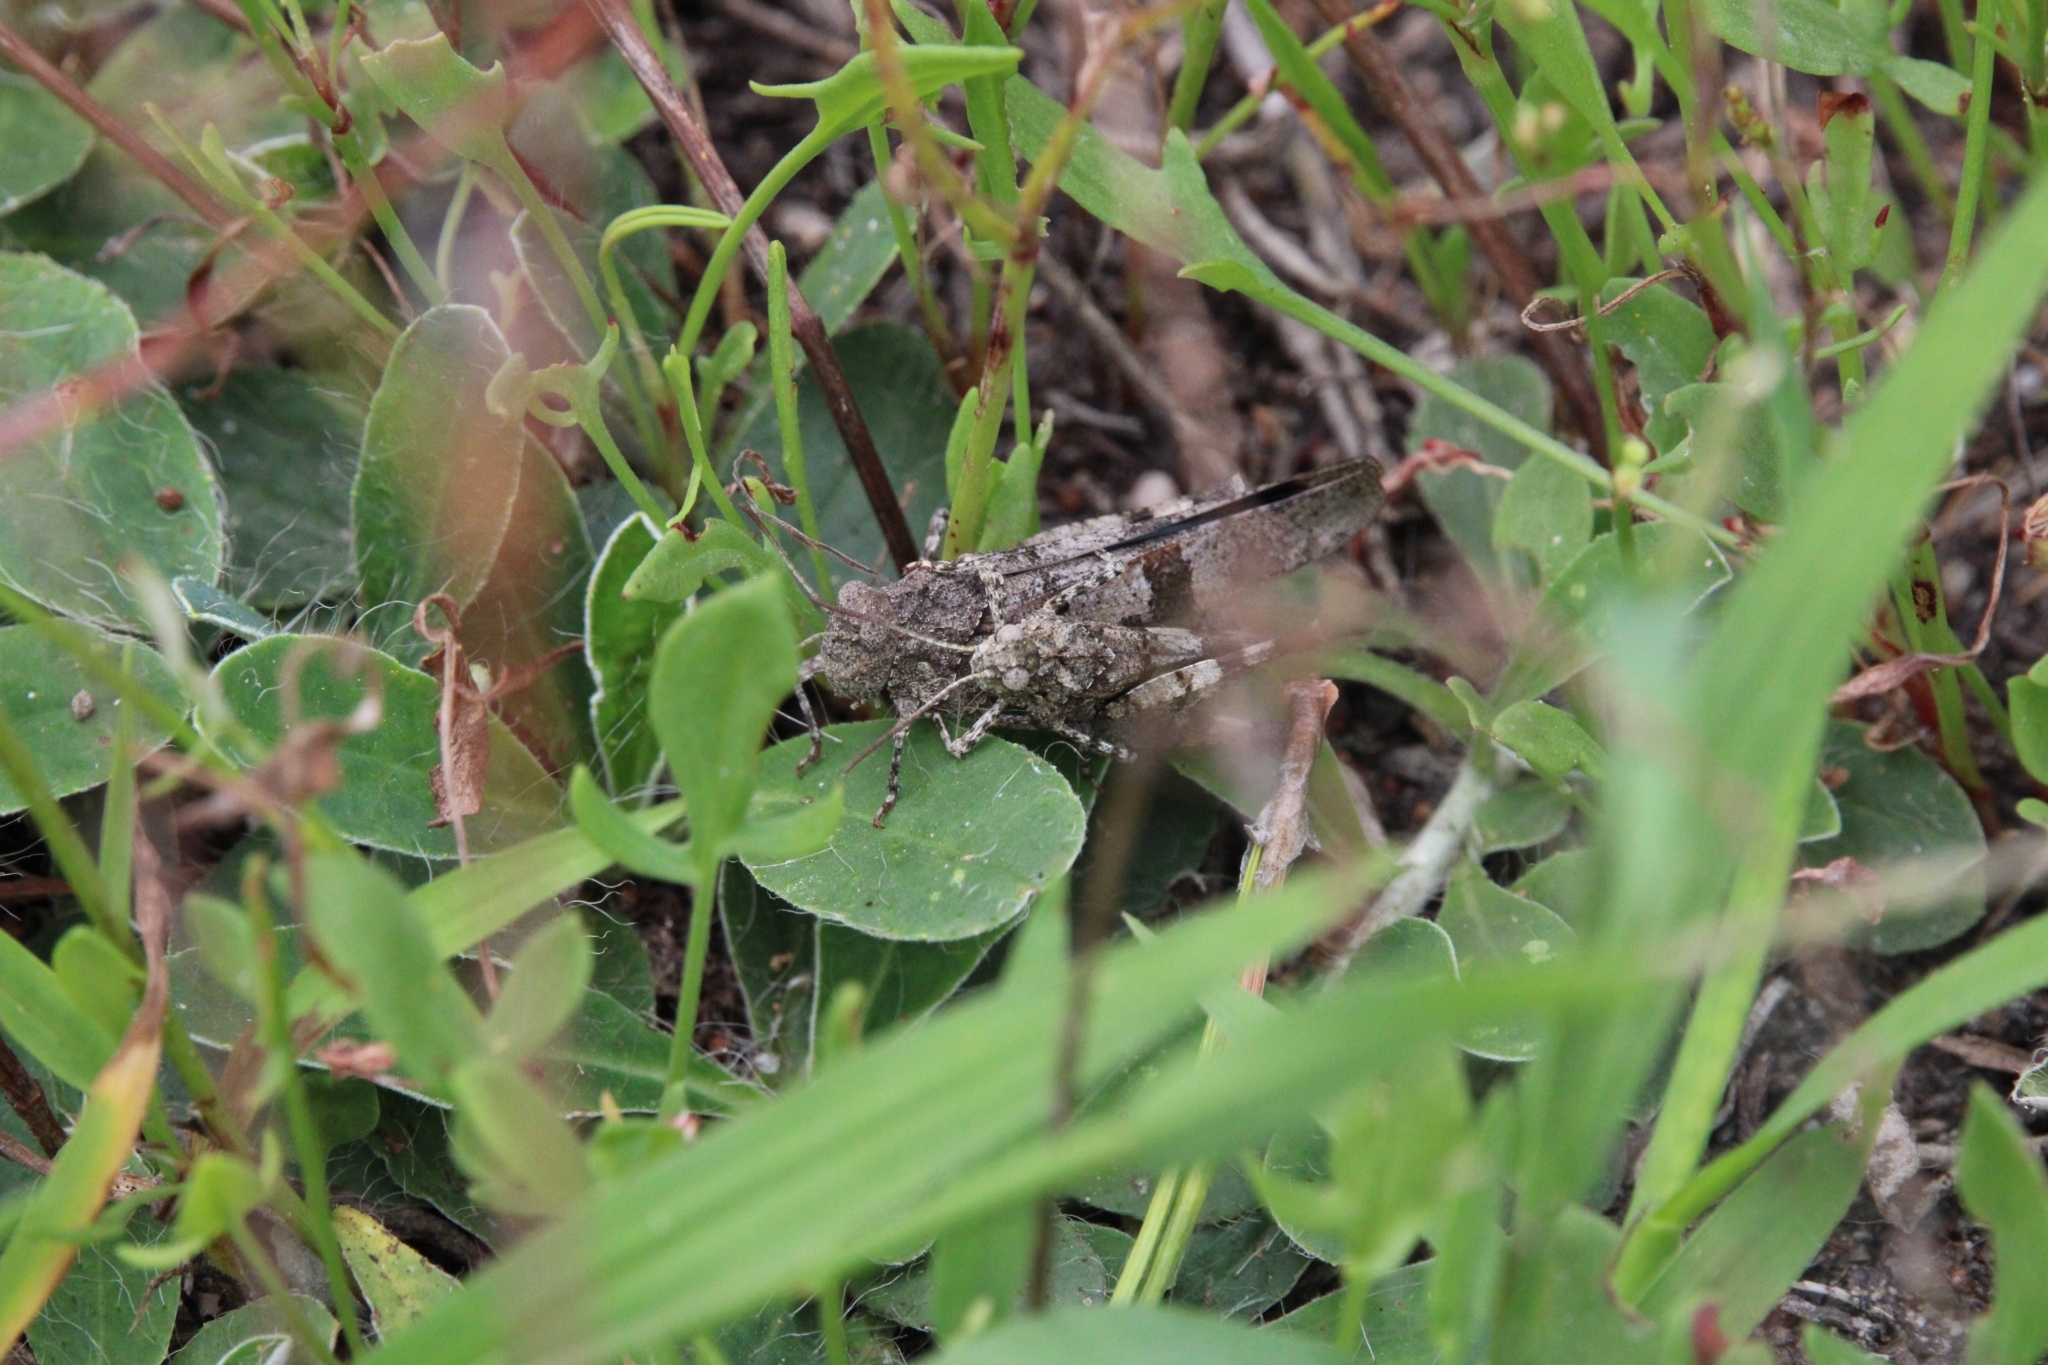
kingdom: Animalia
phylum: Arthropoda
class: Insecta
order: Orthoptera
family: Acrididae
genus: Oedipoda
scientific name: Oedipoda caerulescens
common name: Blue-winged grasshopper
